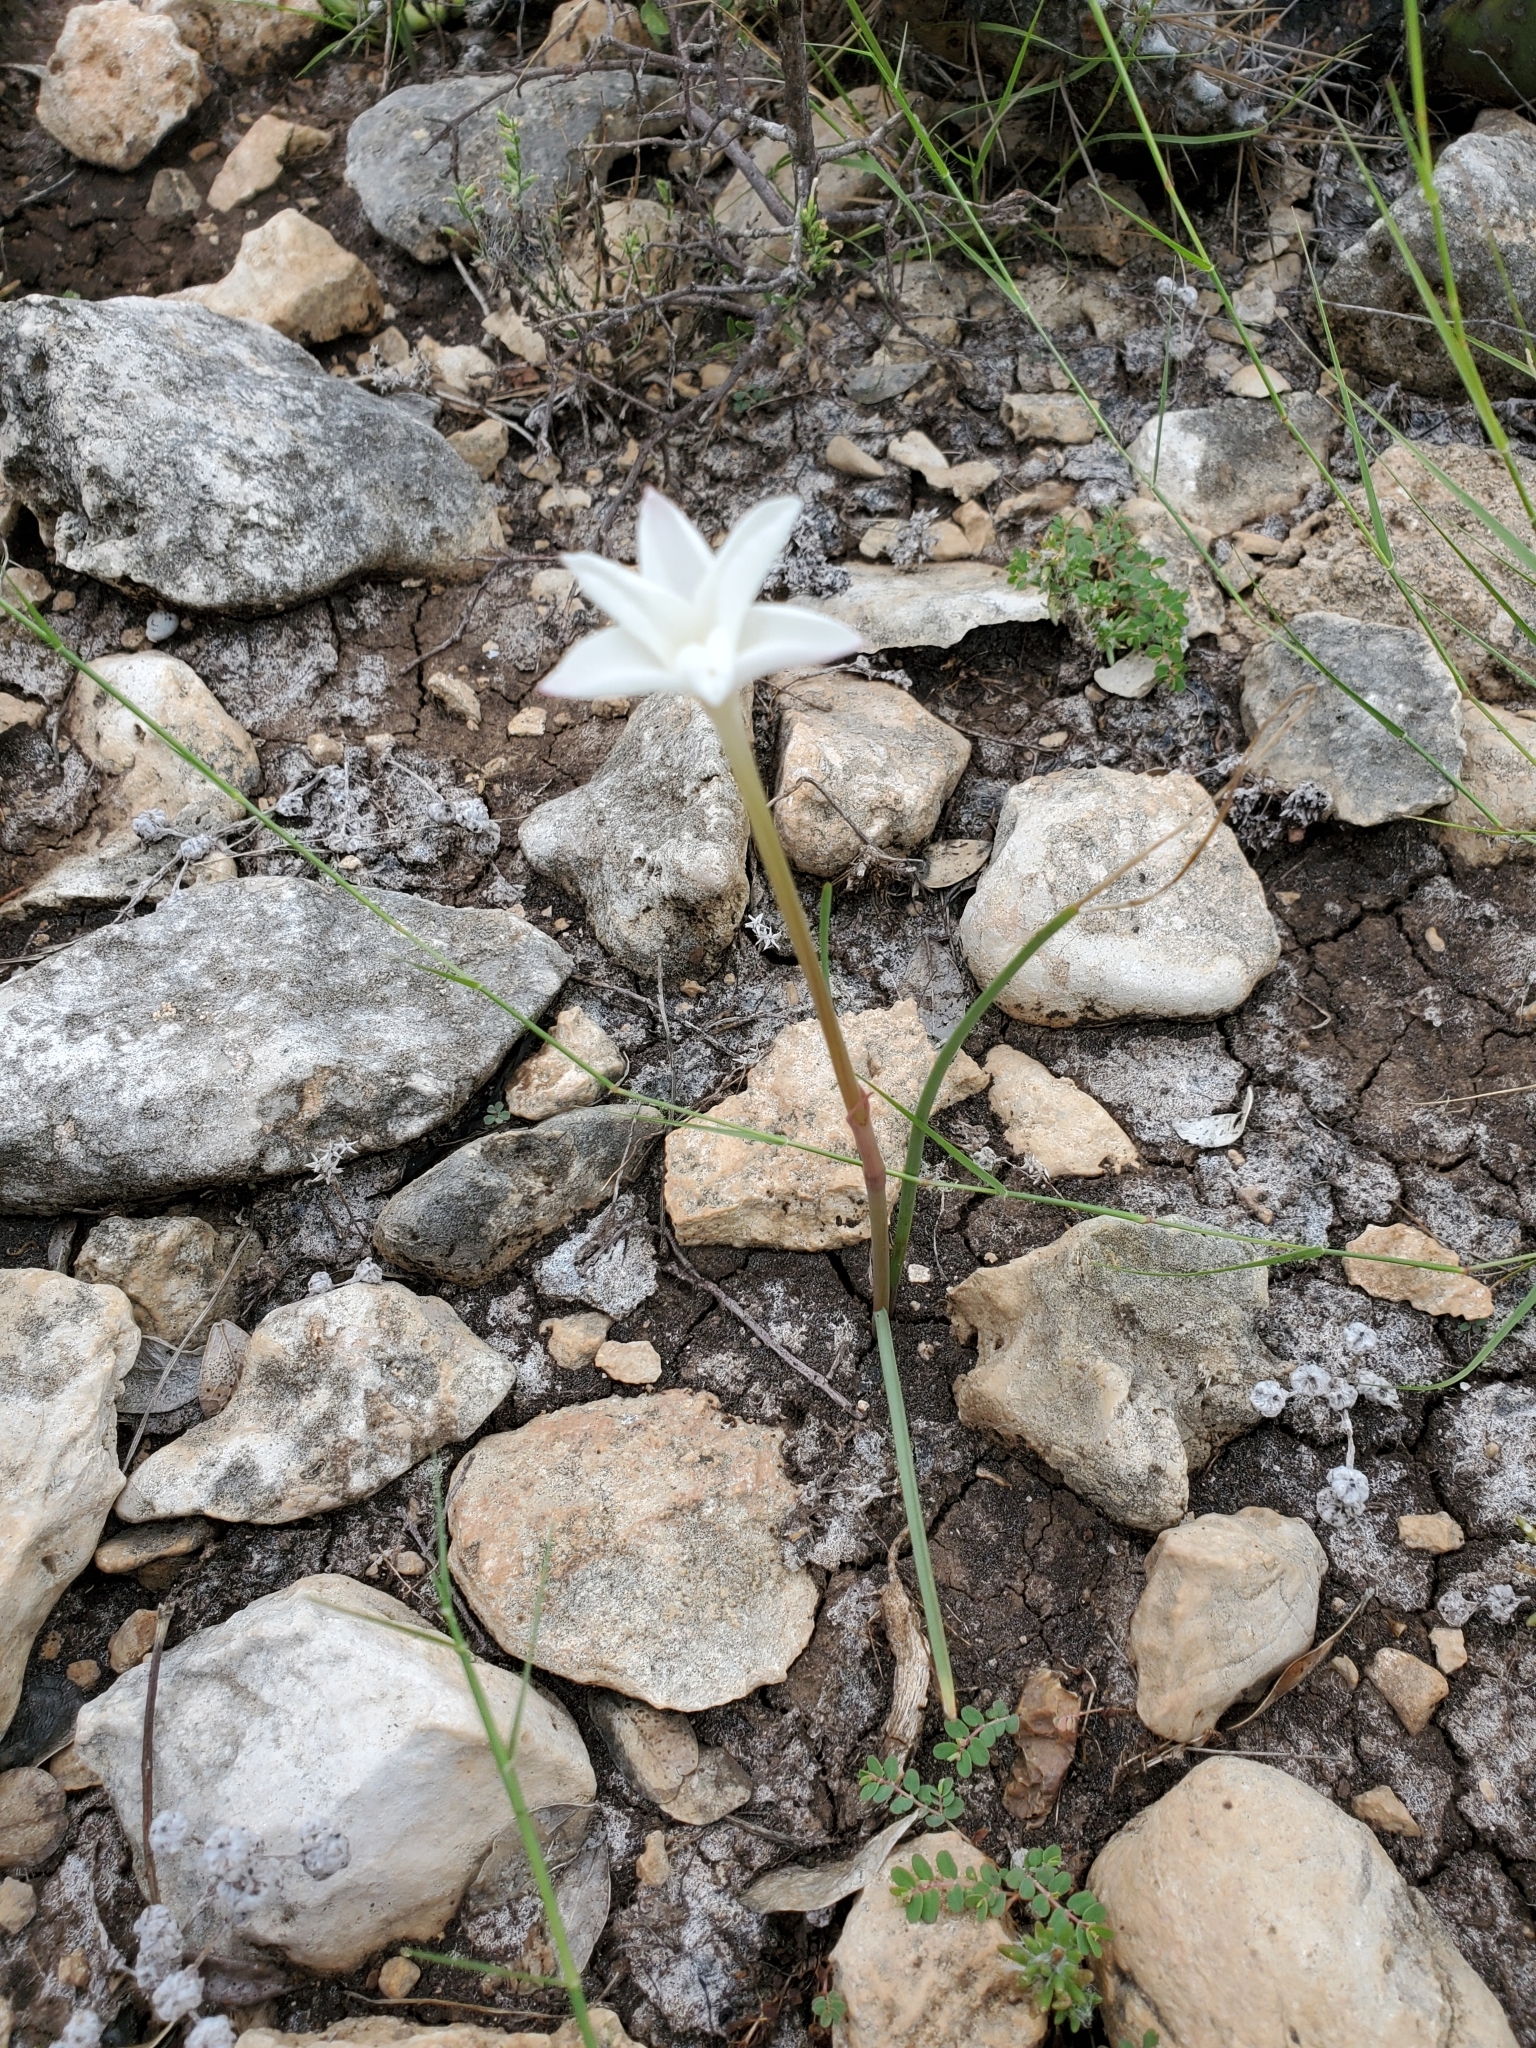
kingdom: Plantae
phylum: Tracheophyta
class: Liliopsida
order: Asparagales
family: Amaryllidaceae
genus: Zephyranthes
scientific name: Zephyranthes chlorosolen
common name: Evening rain-lily
